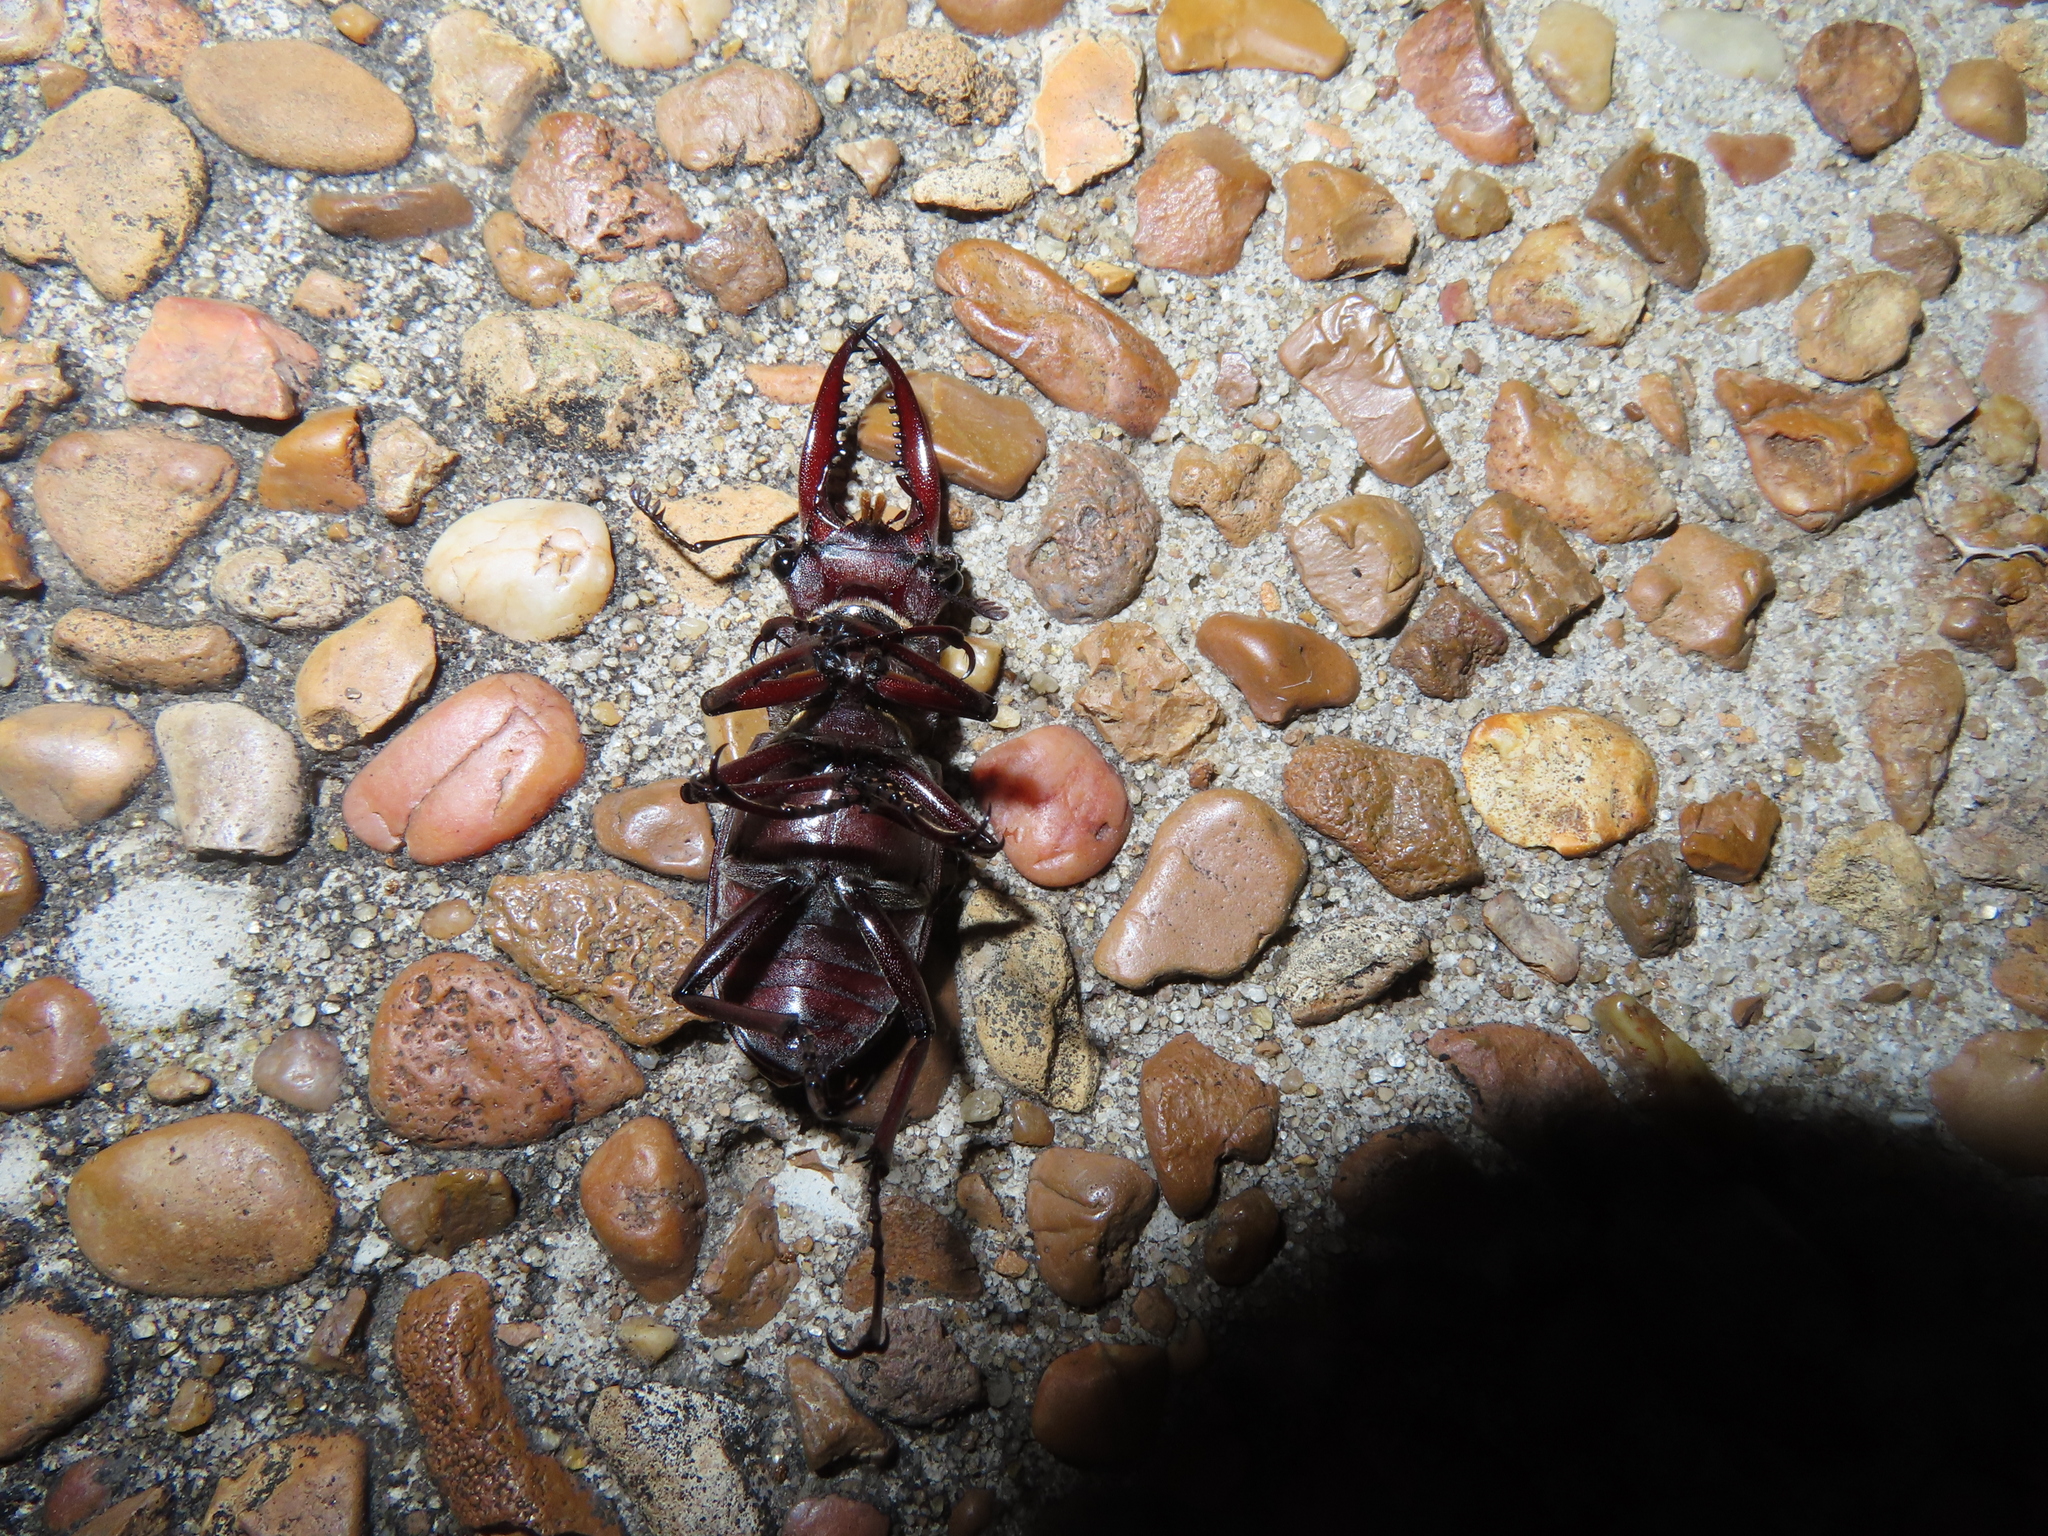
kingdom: Animalia
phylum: Arthropoda
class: Insecta
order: Coleoptera
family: Lucanidae
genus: Lucanus
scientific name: Lucanus elaphus
